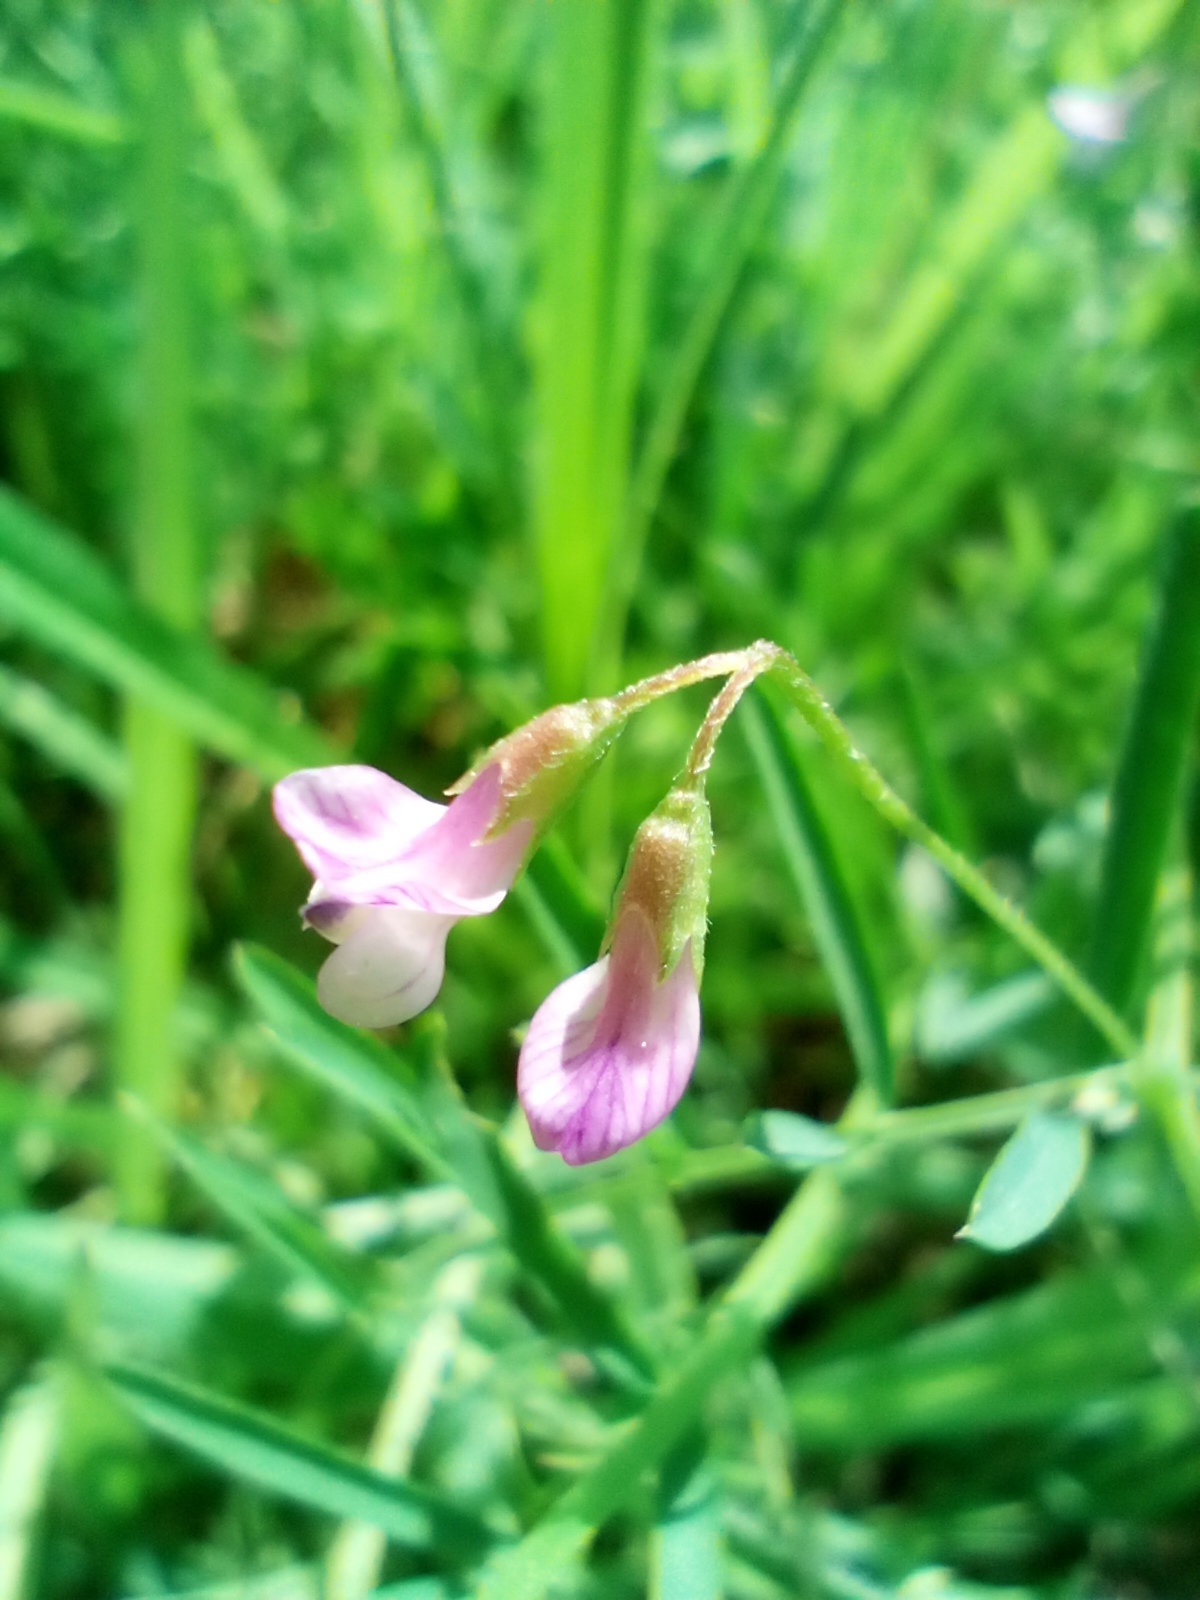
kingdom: Plantae
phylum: Tracheophyta
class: Magnoliopsida
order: Fabales
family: Fabaceae
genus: Vicia
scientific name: Vicia tetrasperma
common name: Smooth tare
